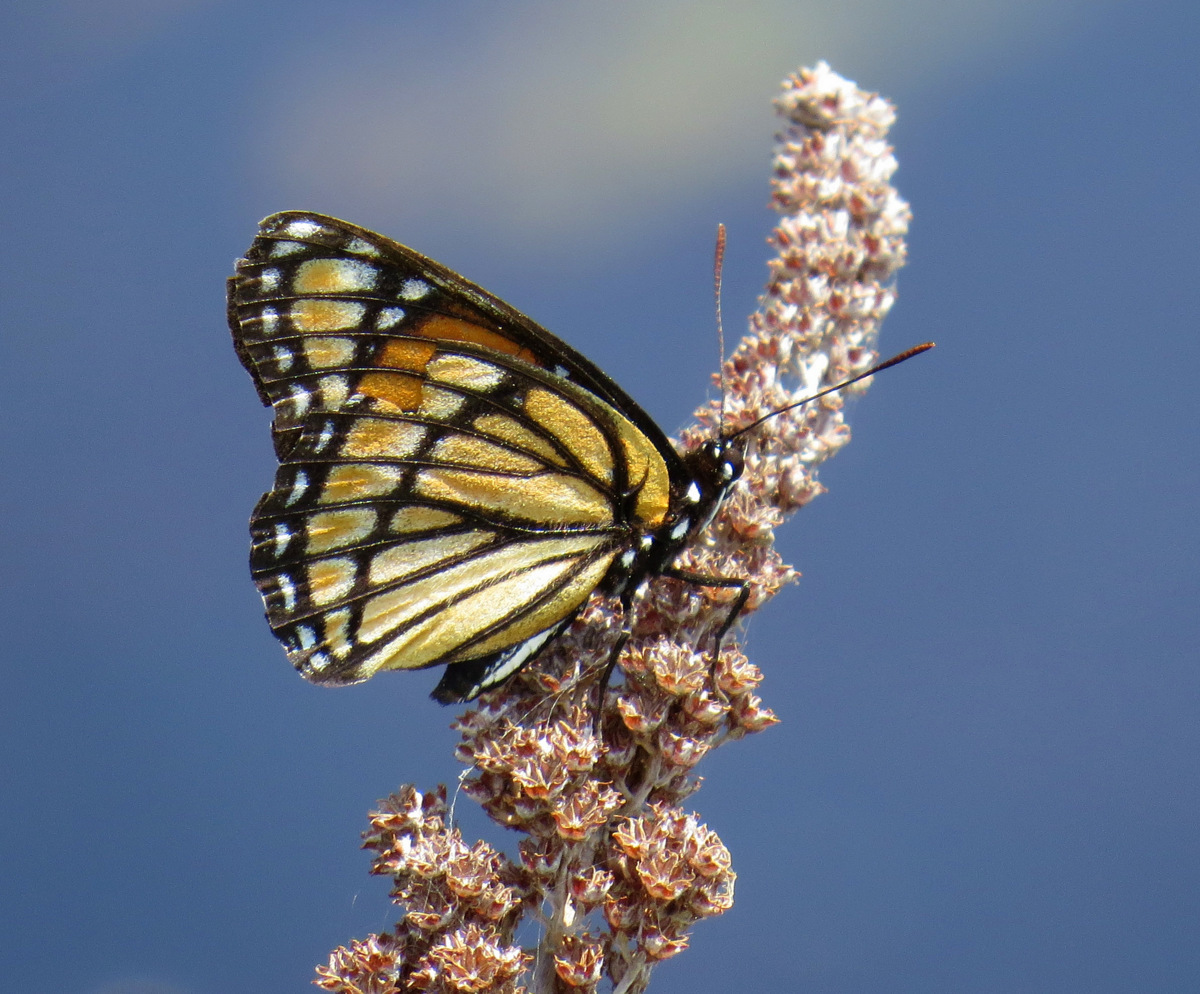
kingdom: Animalia
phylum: Arthropoda
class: Insecta
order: Lepidoptera
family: Nymphalidae
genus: Limenitis
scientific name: Limenitis archippus
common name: Viceroy
